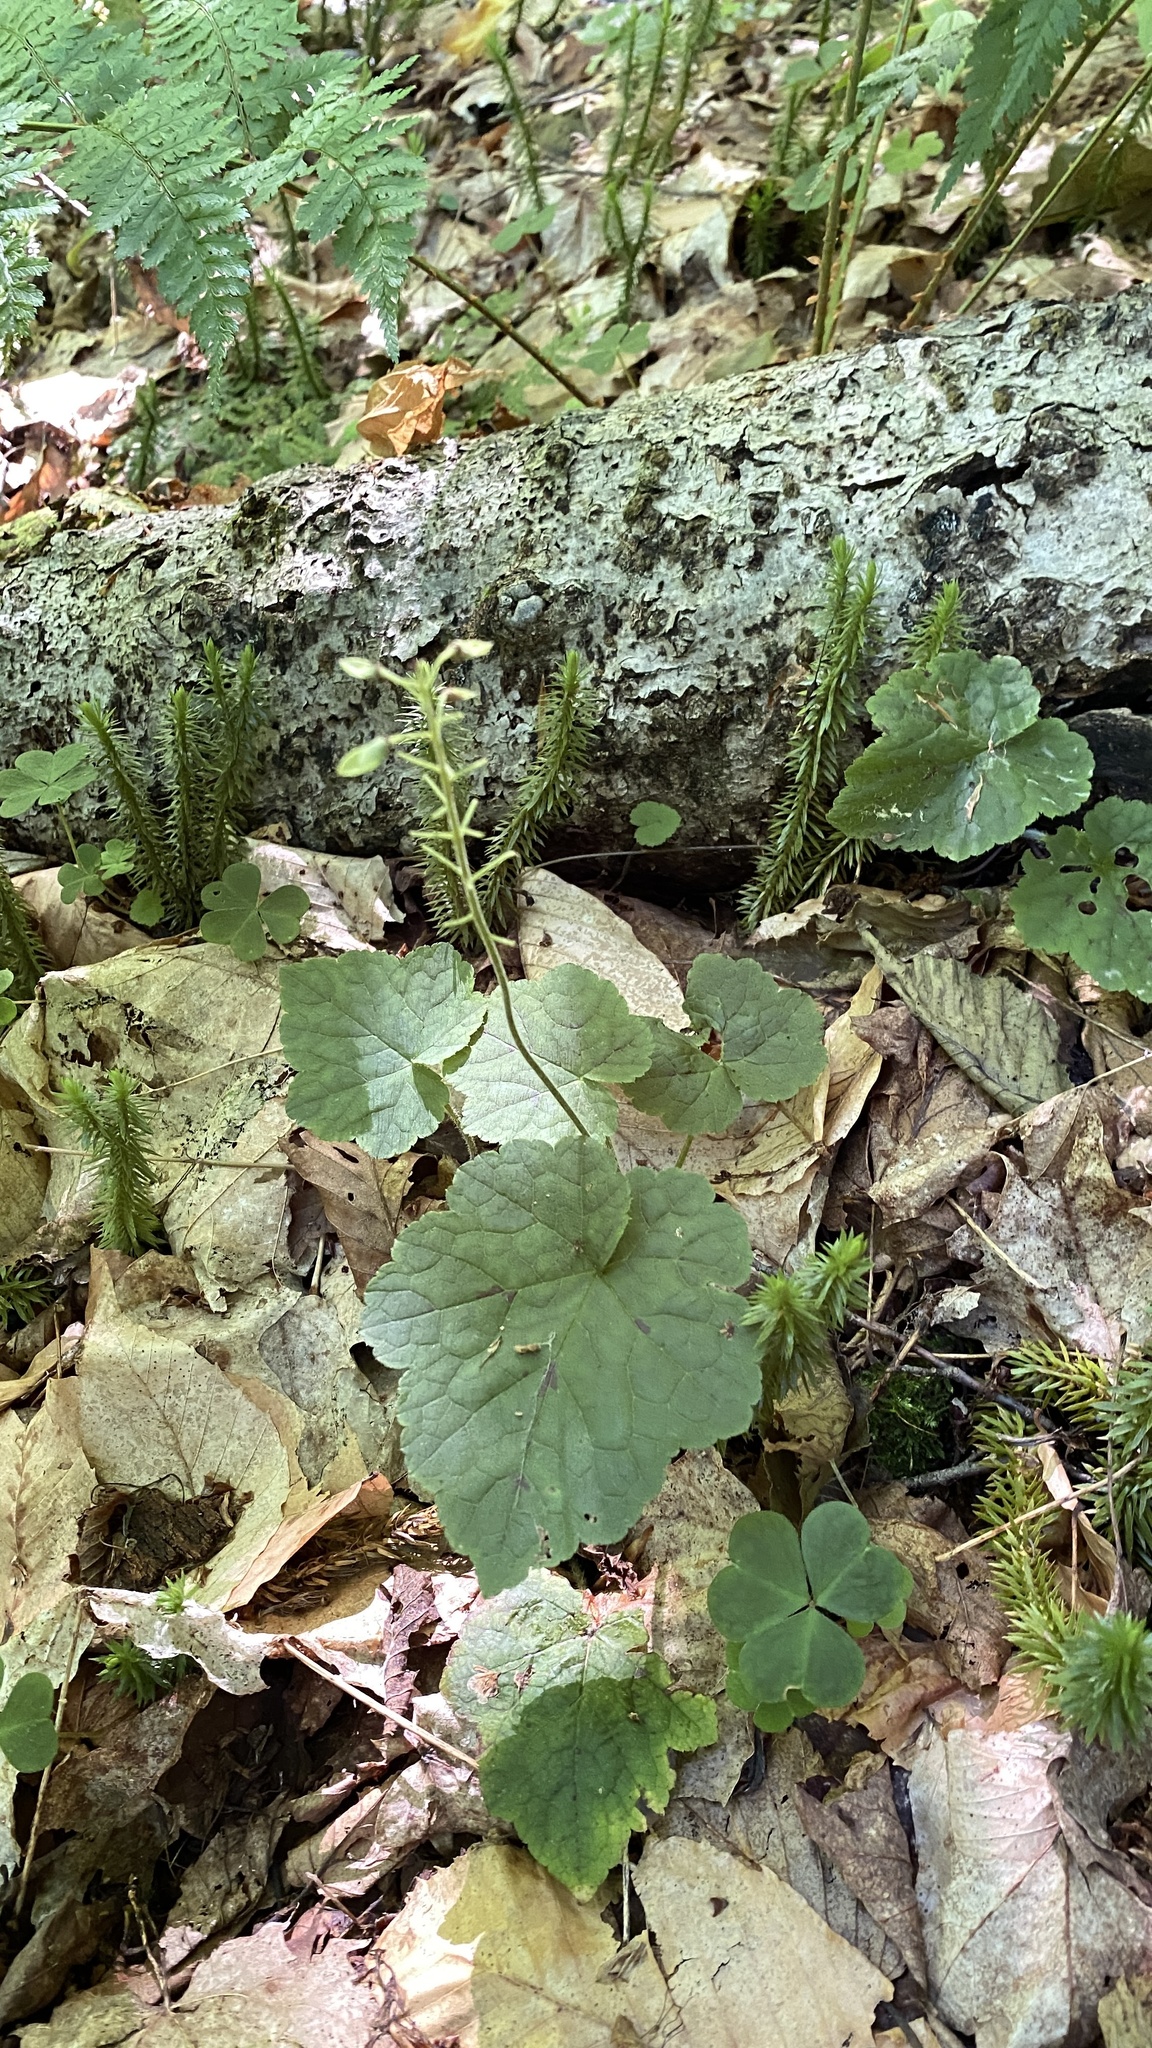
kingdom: Plantae
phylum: Tracheophyta
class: Magnoliopsida
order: Saxifragales
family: Saxifragaceae
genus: Tiarella
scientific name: Tiarella stolonifera
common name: Stoloniferous foamflower
